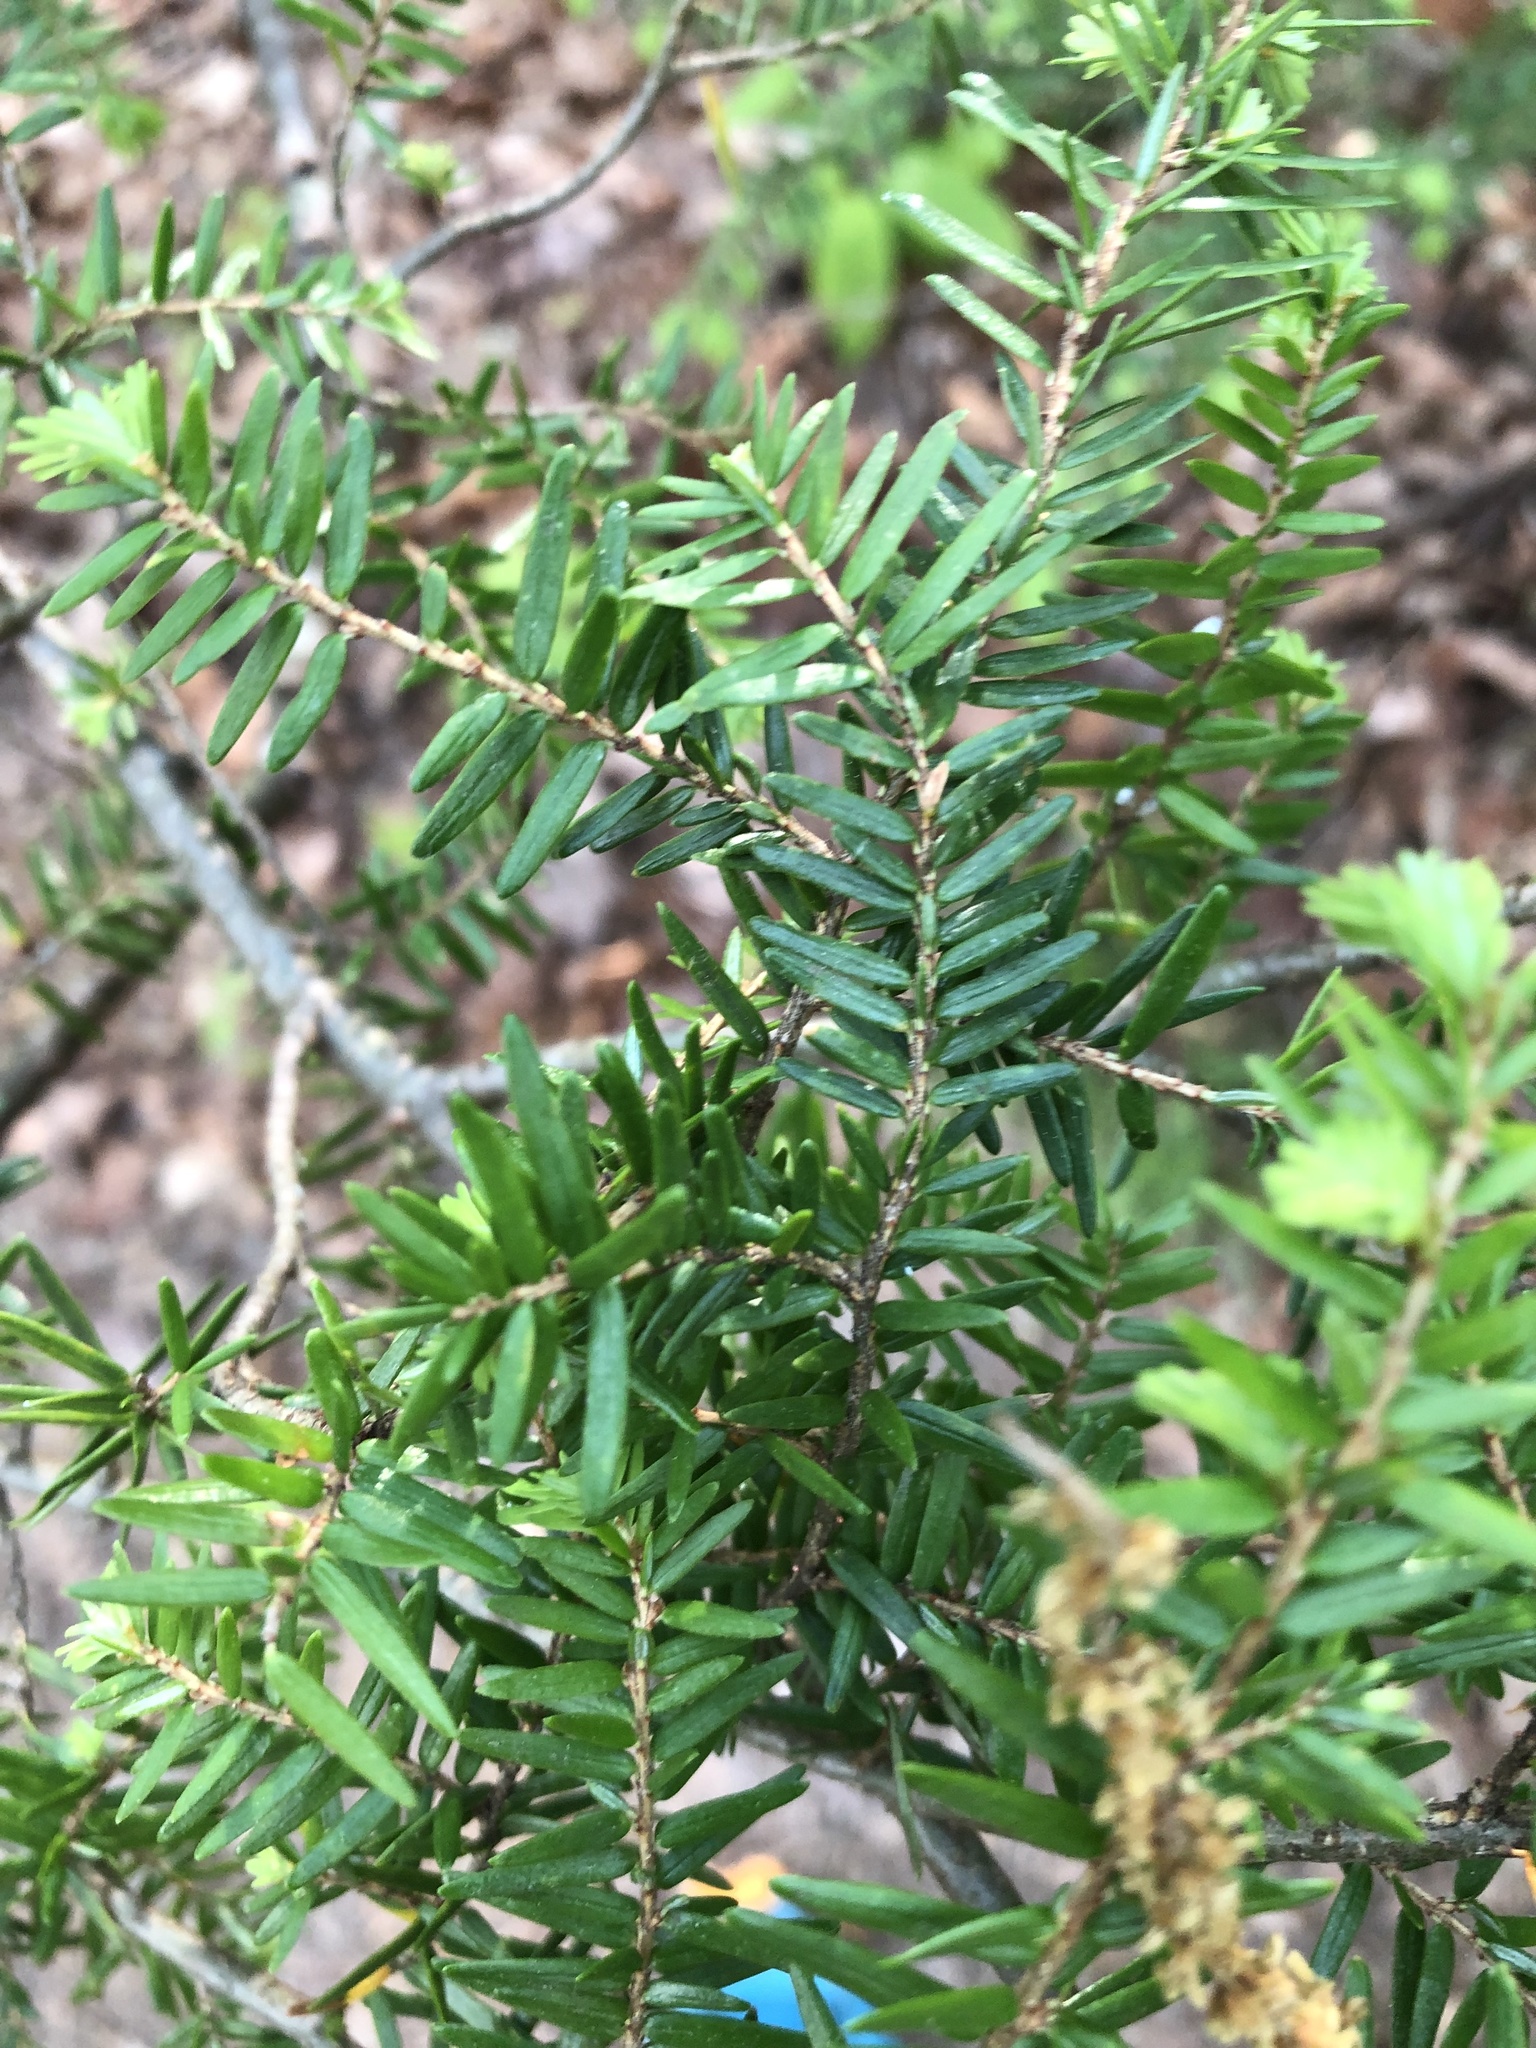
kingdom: Plantae
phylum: Tracheophyta
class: Pinopsida
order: Pinales
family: Pinaceae
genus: Tsuga
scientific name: Tsuga canadensis
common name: Eastern hemlock
